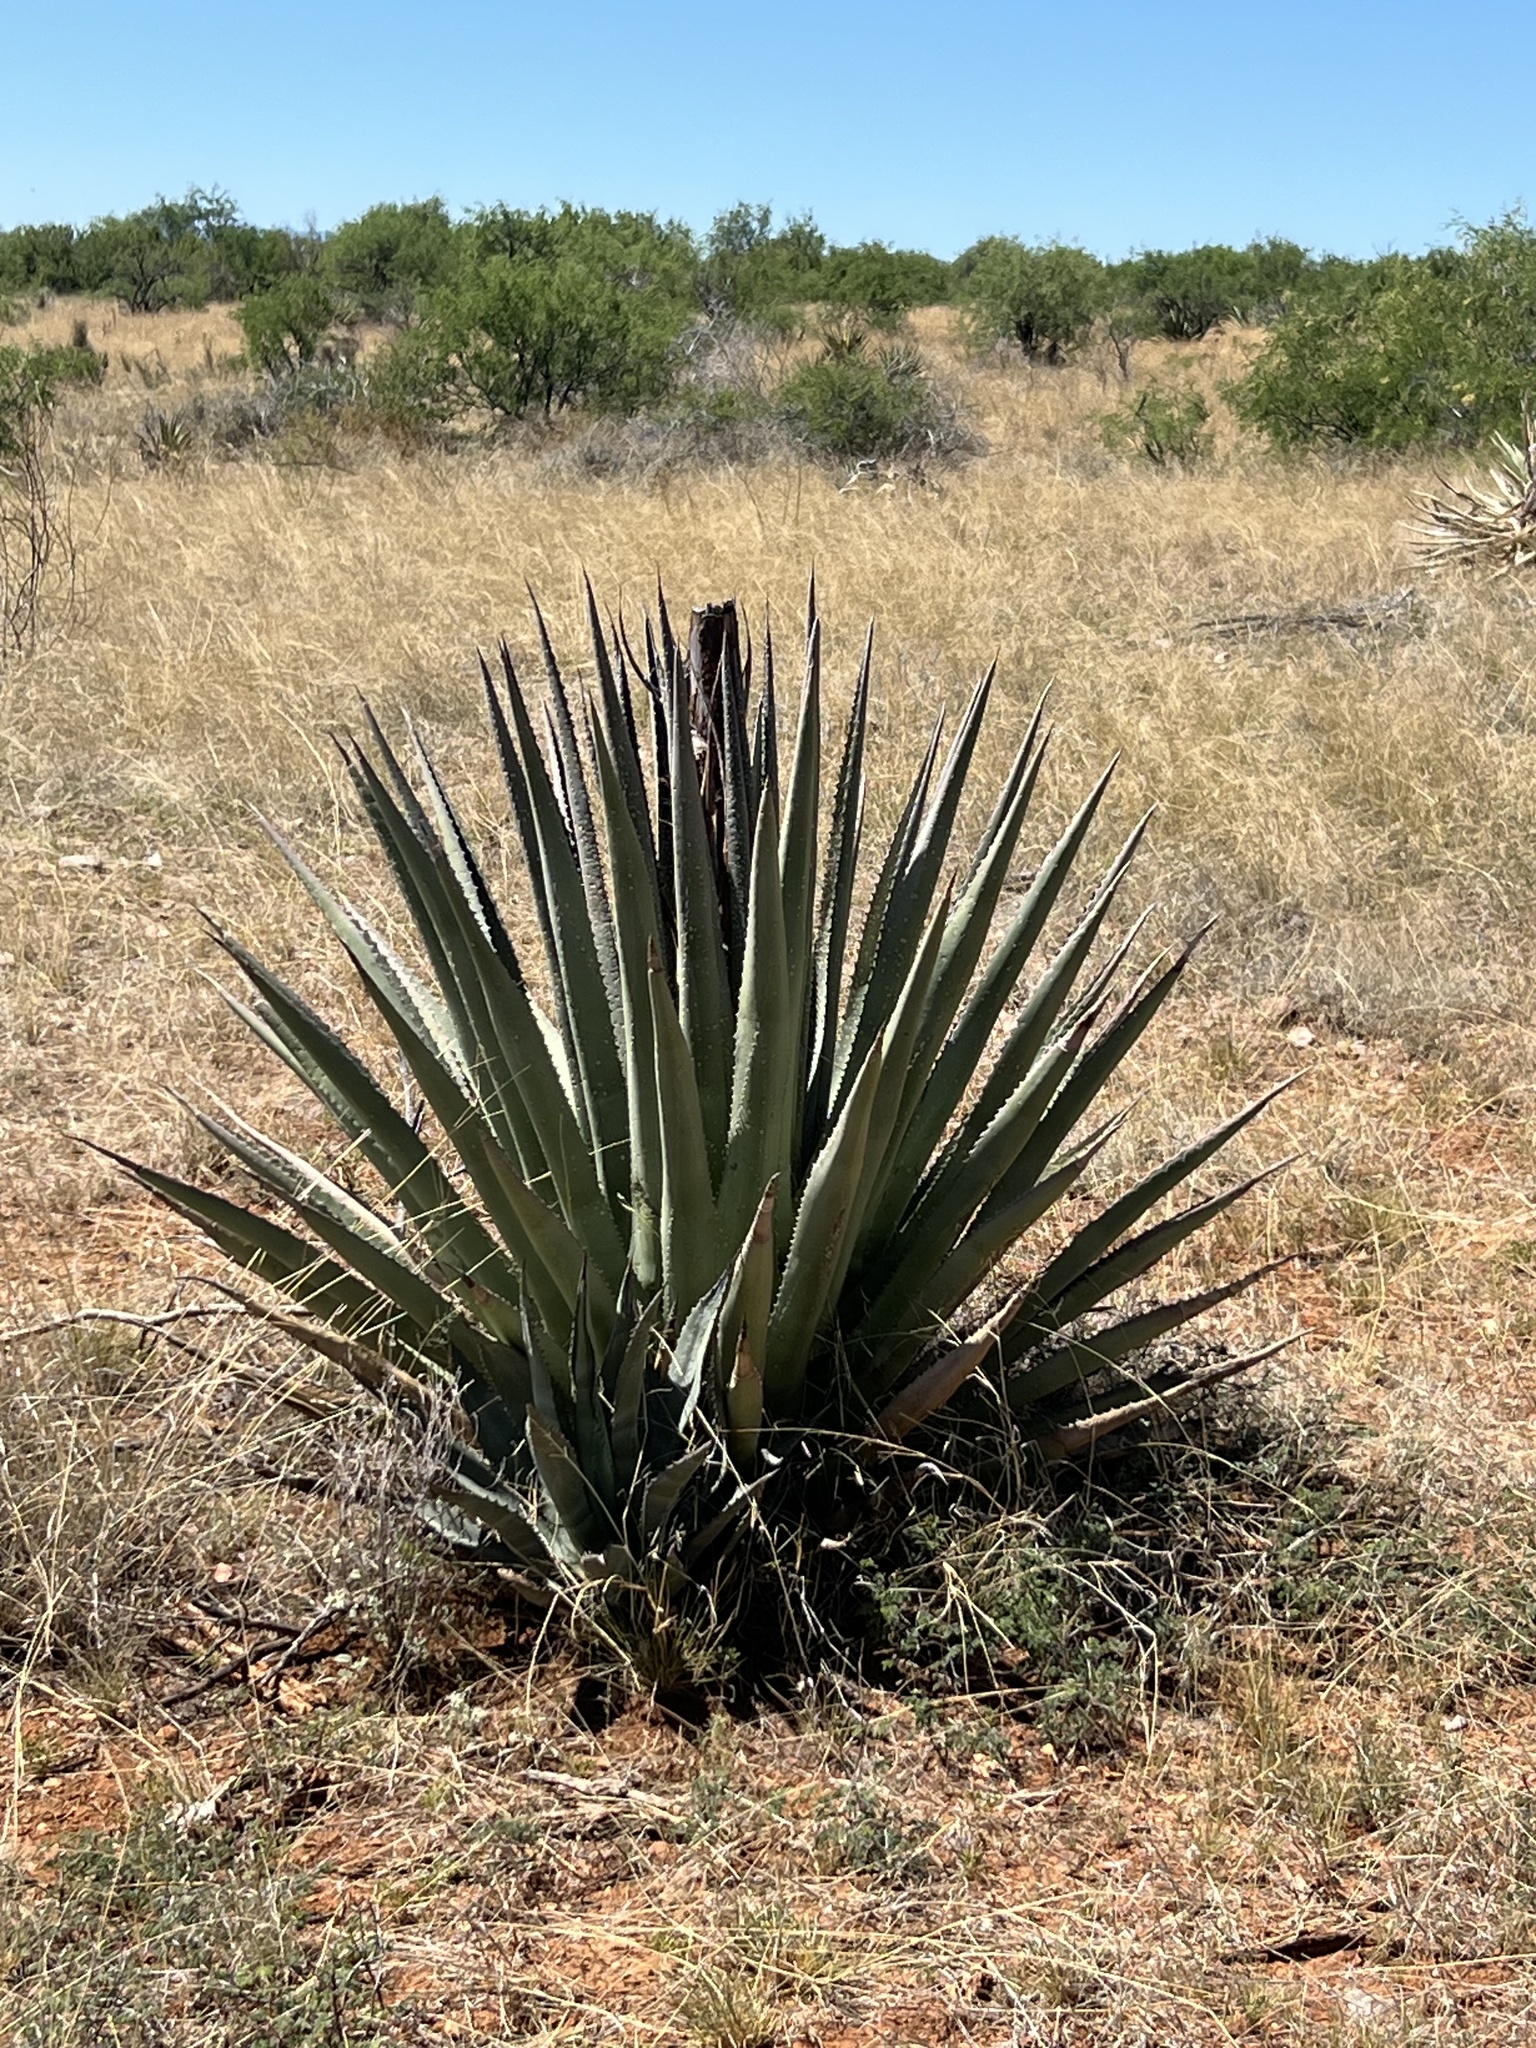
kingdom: Plantae
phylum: Tracheophyta
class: Liliopsida
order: Asparagales
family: Asparagaceae
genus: Agave
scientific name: Agave palmeri
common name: Palmer agave
